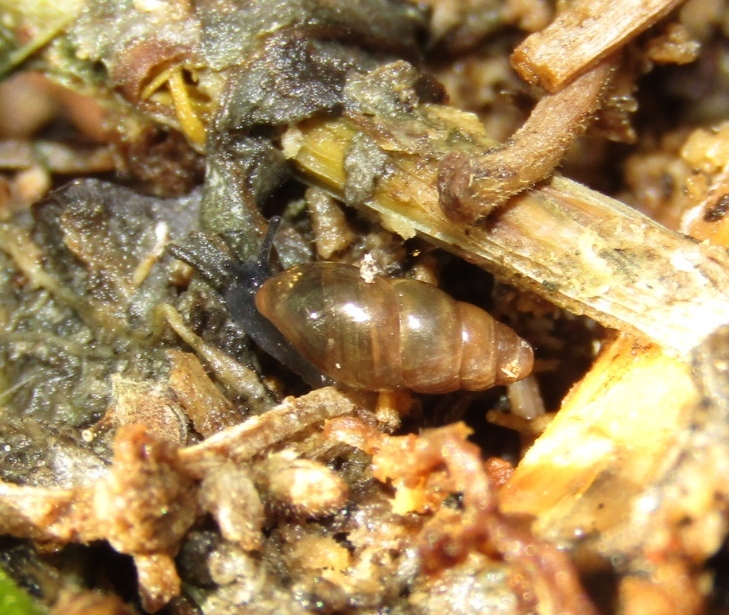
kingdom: Animalia
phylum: Mollusca
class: Gastropoda
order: Stylommatophora
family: Cochlicopidae
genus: Cochlicopa
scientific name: Cochlicopa lubrica
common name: Glossy pillar snail
